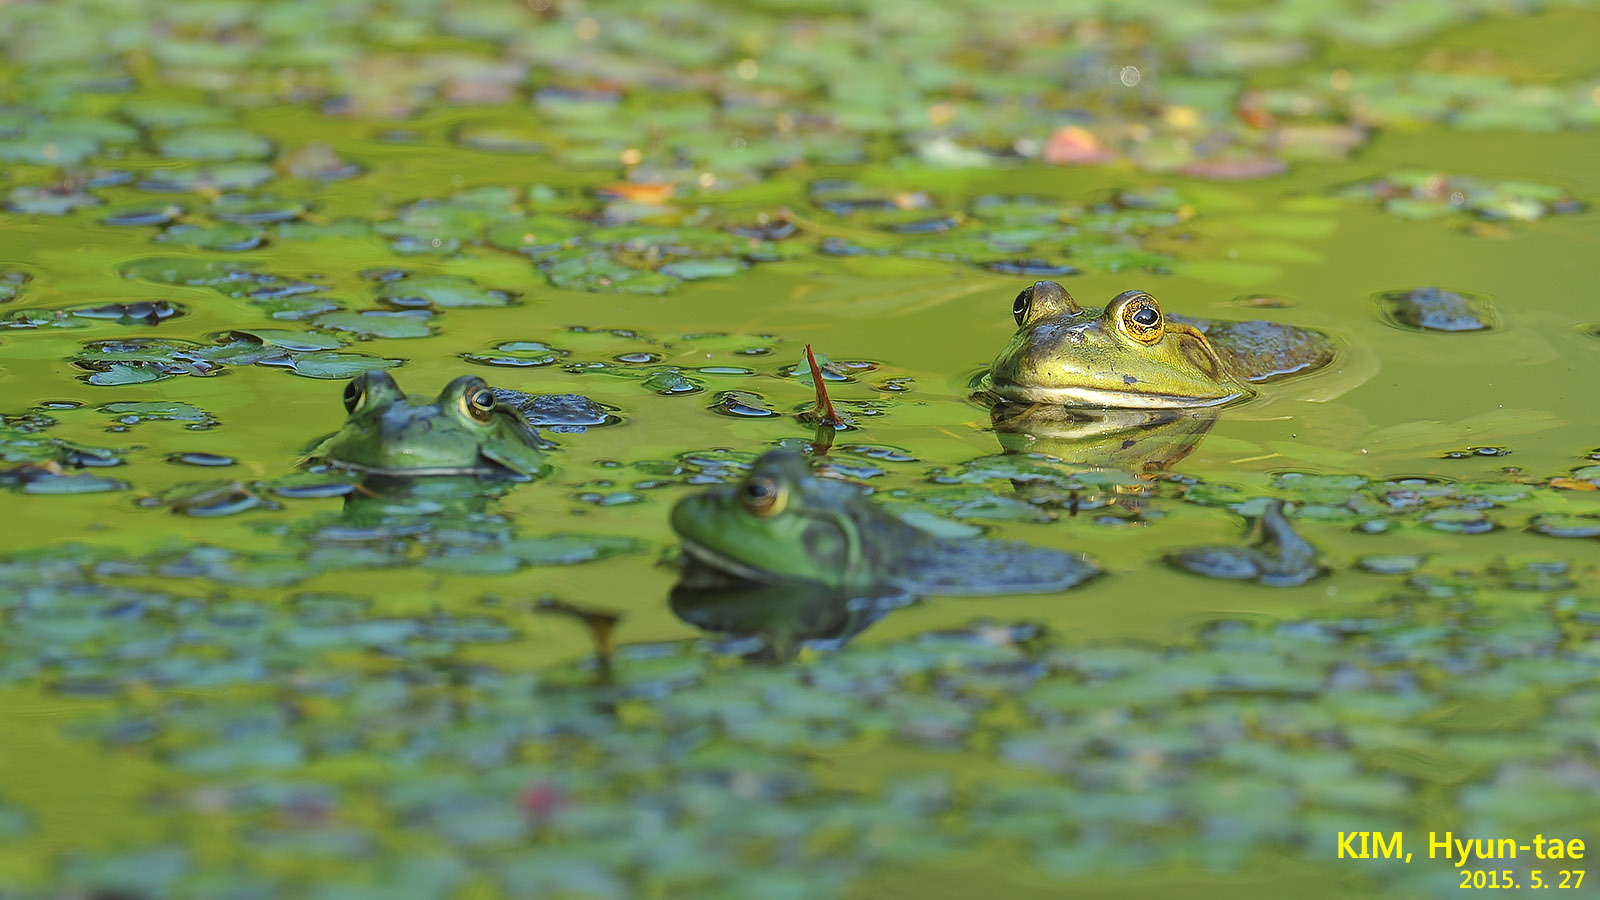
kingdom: Animalia
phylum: Chordata
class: Amphibia
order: Anura
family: Ranidae
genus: Lithobates
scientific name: Lithobates catesbeianus
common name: American bullfrog
